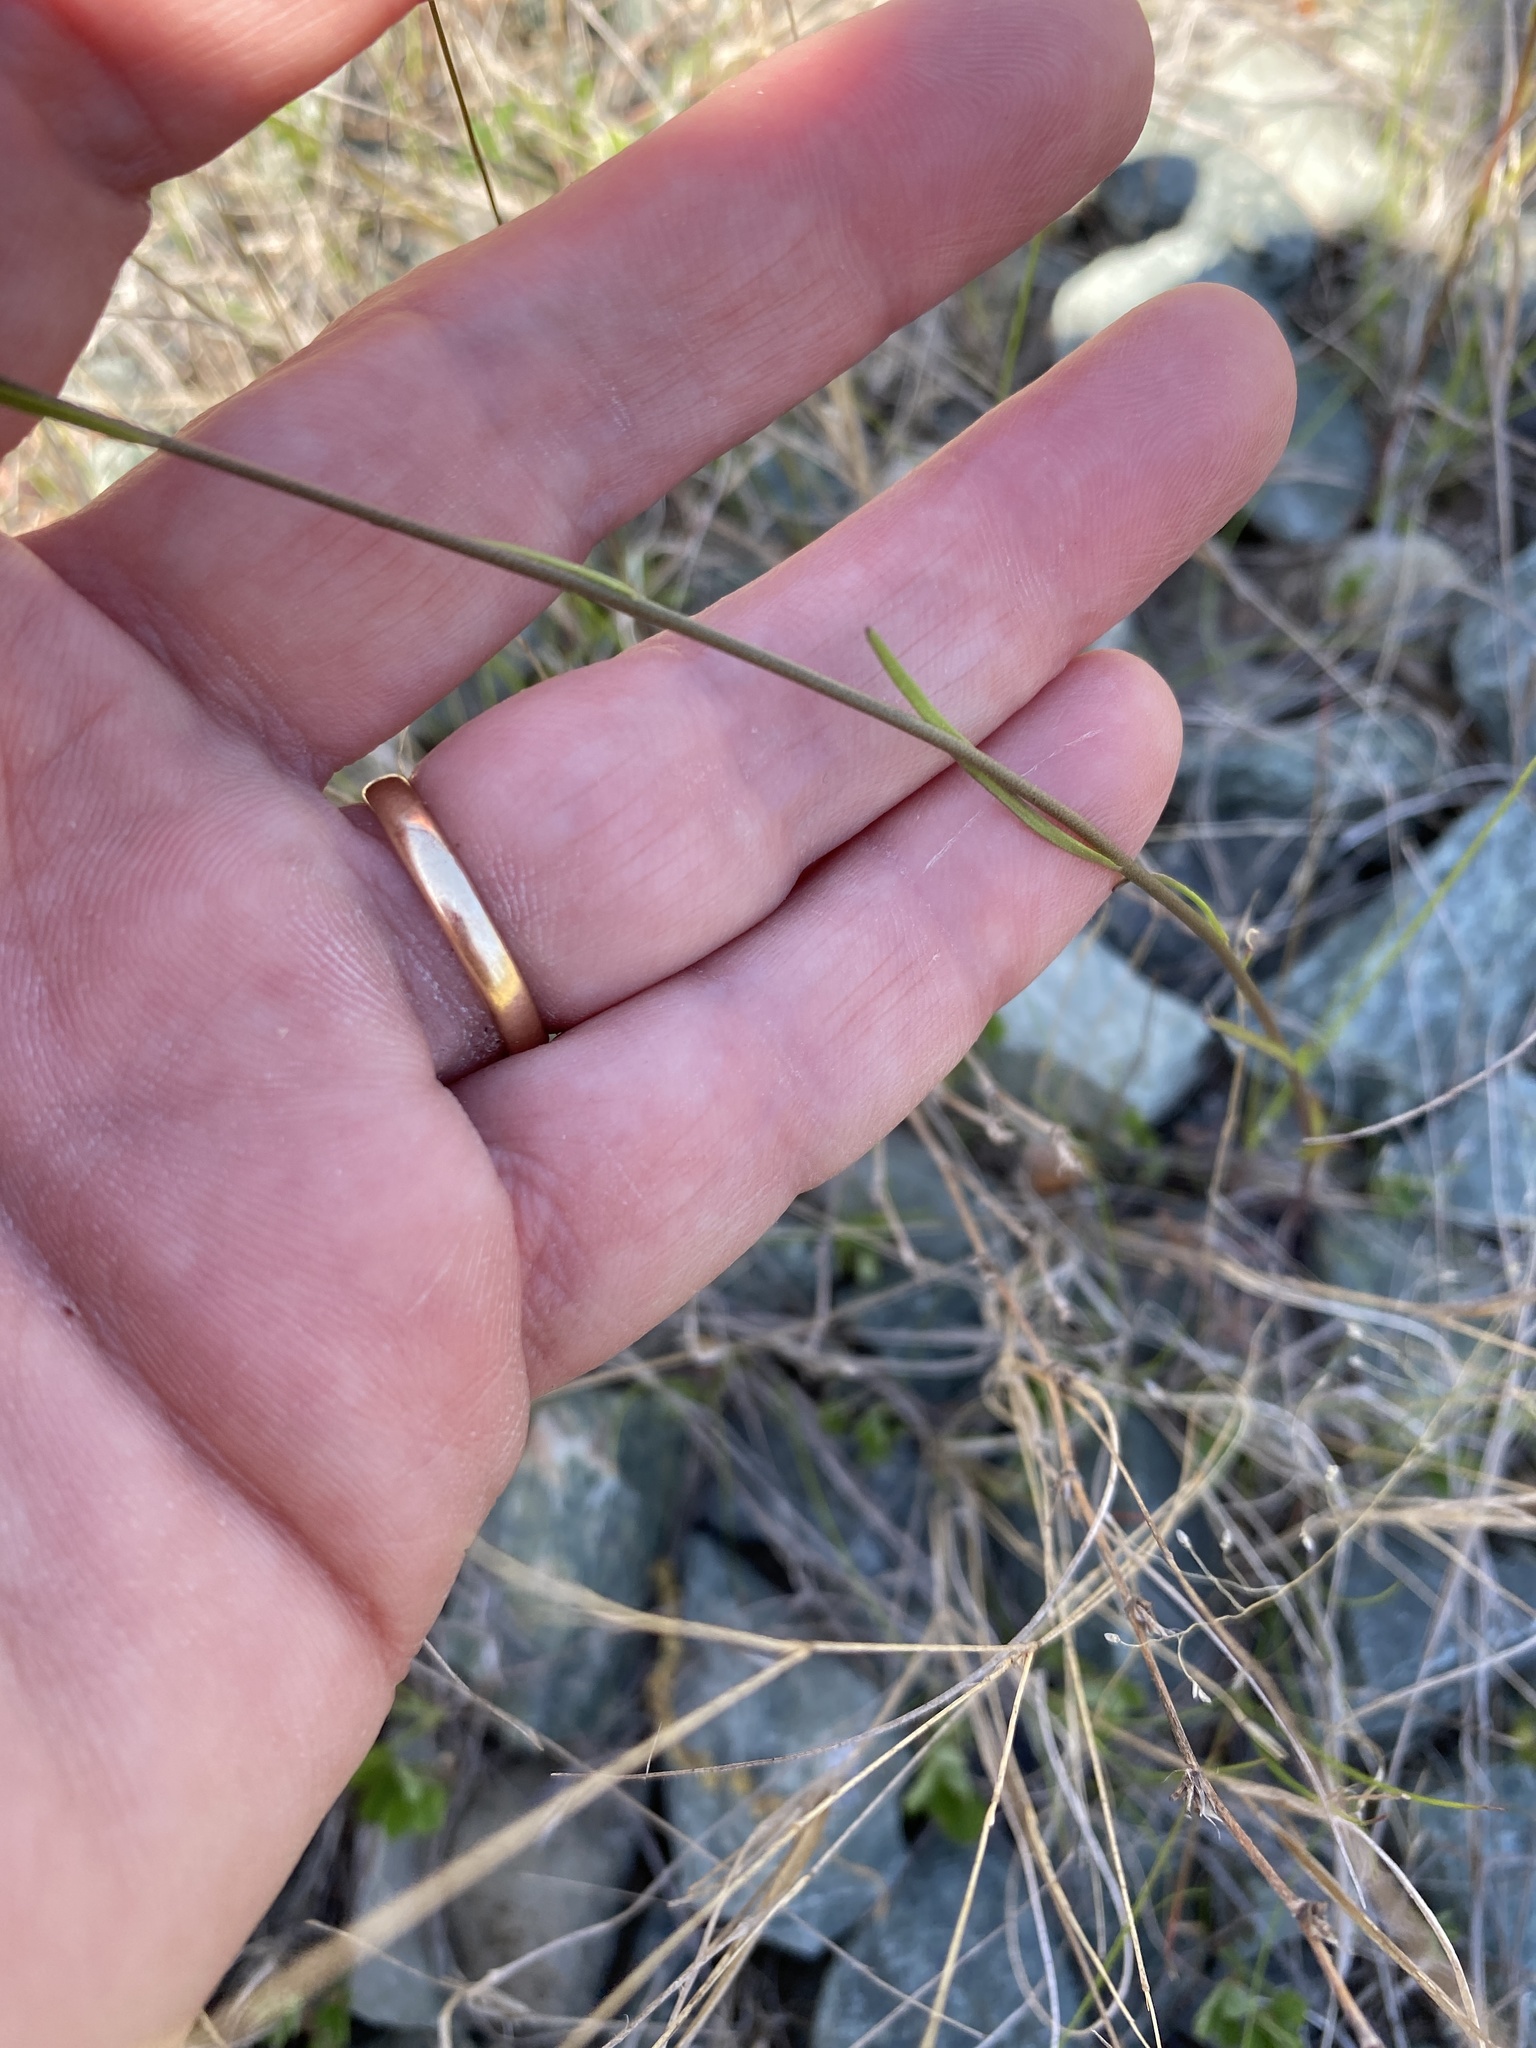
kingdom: Plantae
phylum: Tracheophyta
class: Magnoliopsida
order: Lamiales
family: Plantaginaceae
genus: Nuttallanthus
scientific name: Nuttallanthus canadensis
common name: Blue toadflax
